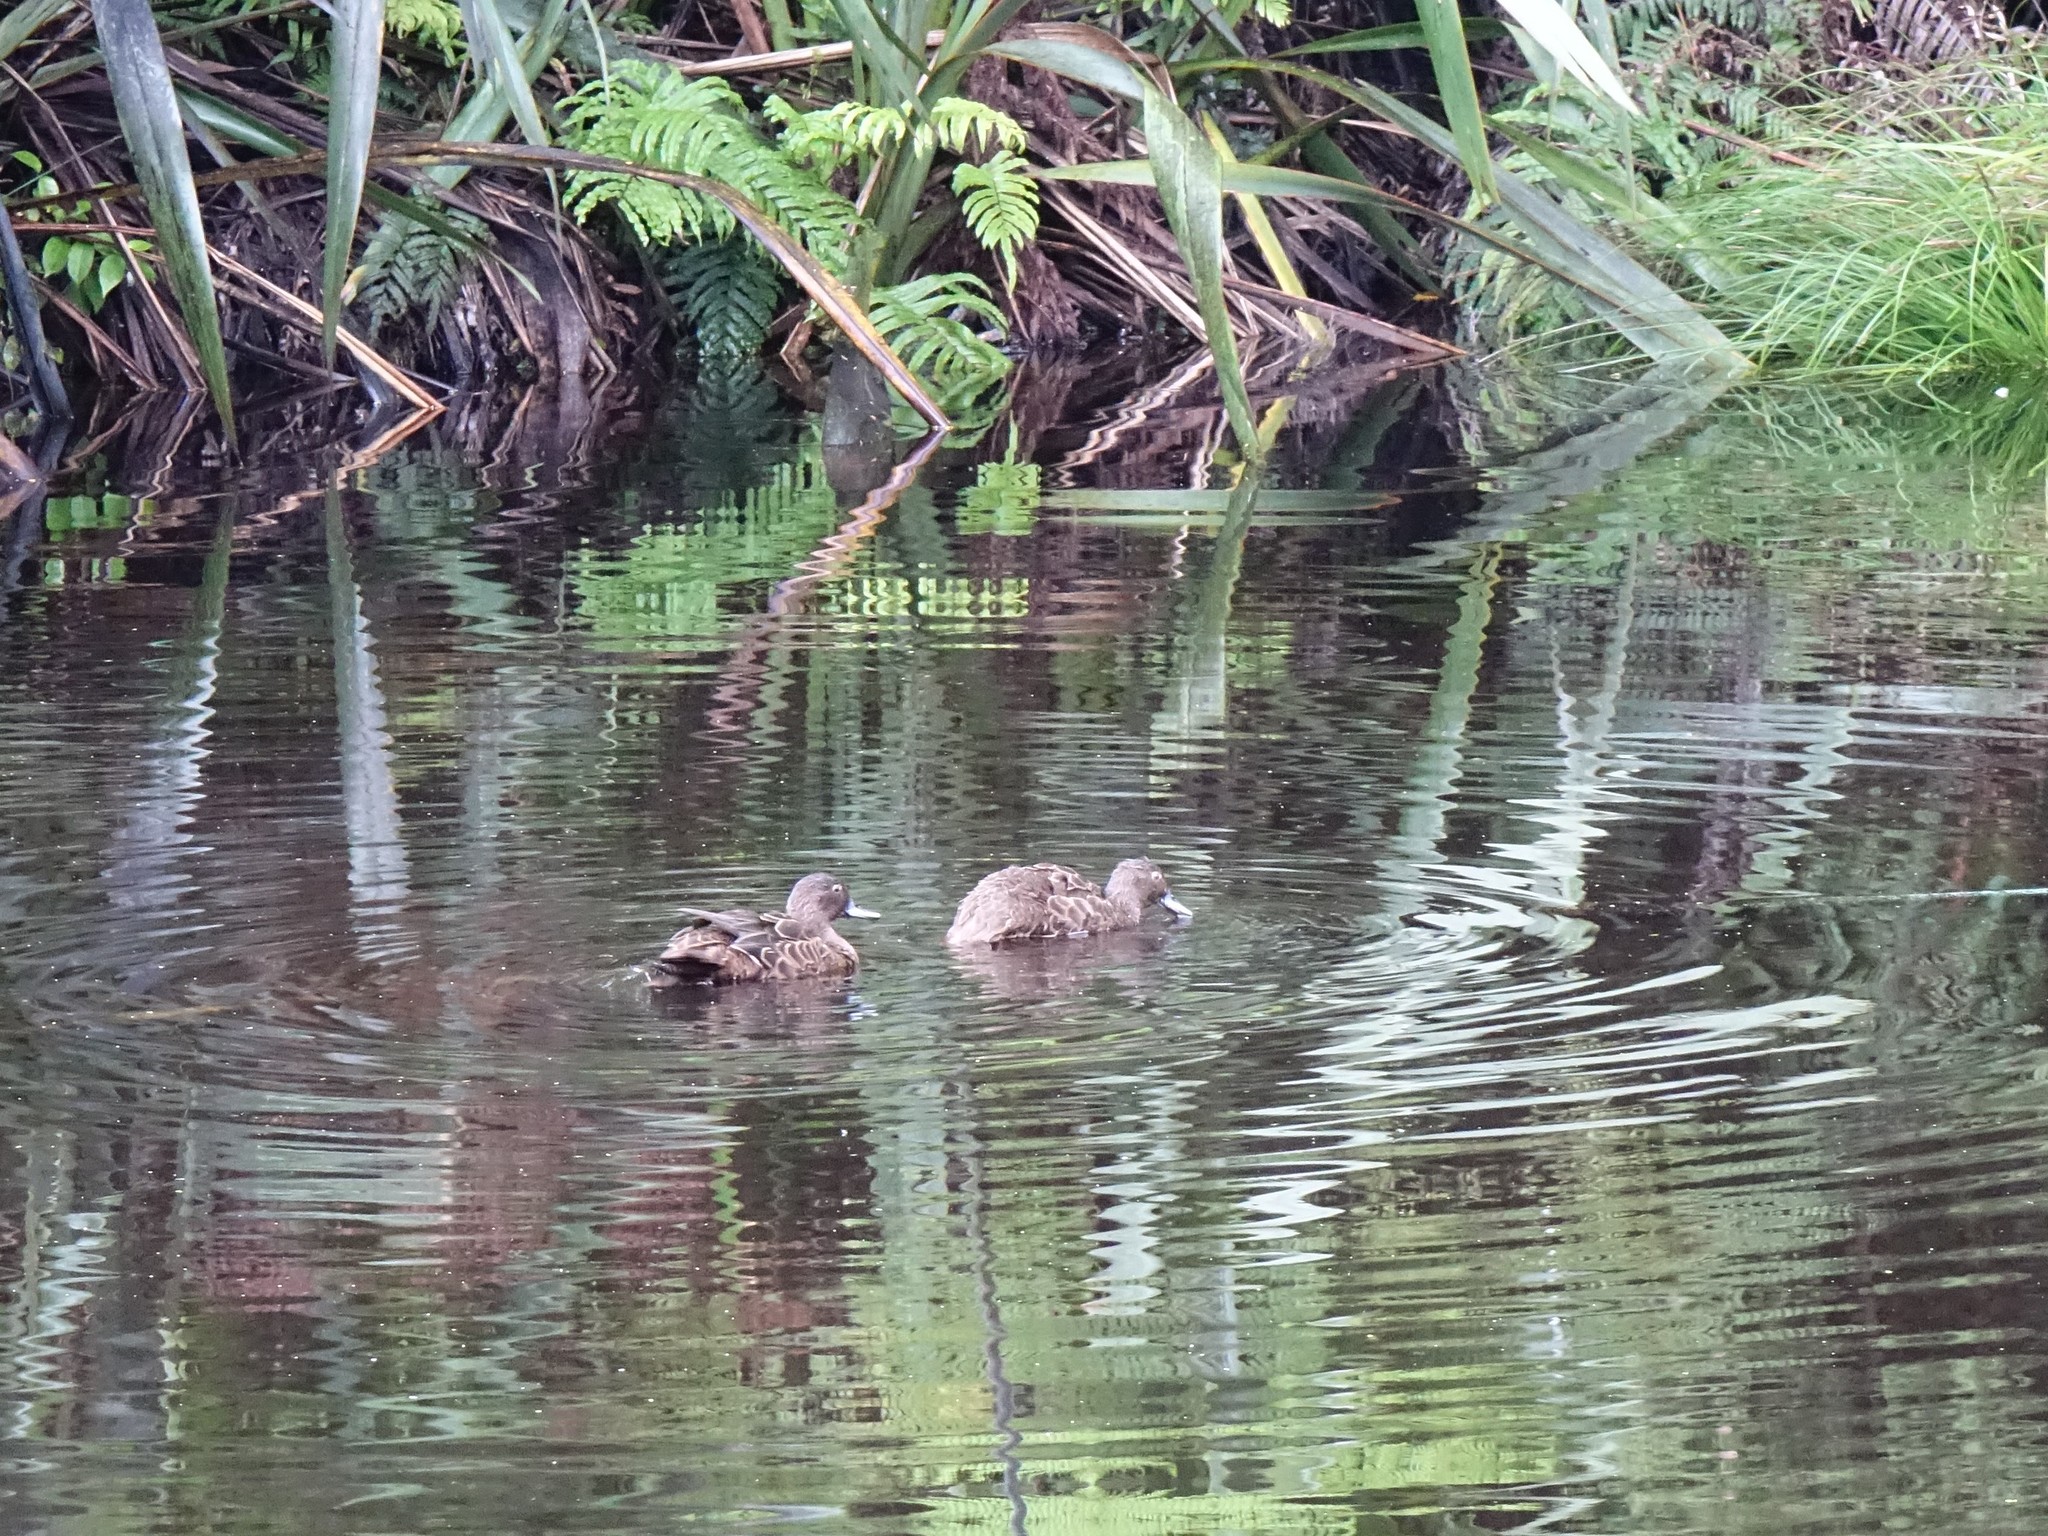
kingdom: Animalia
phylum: Chordata
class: Aves
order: Anseriformes
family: Anatidae
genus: Anas
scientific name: Anas chlorotis
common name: Brown teal
